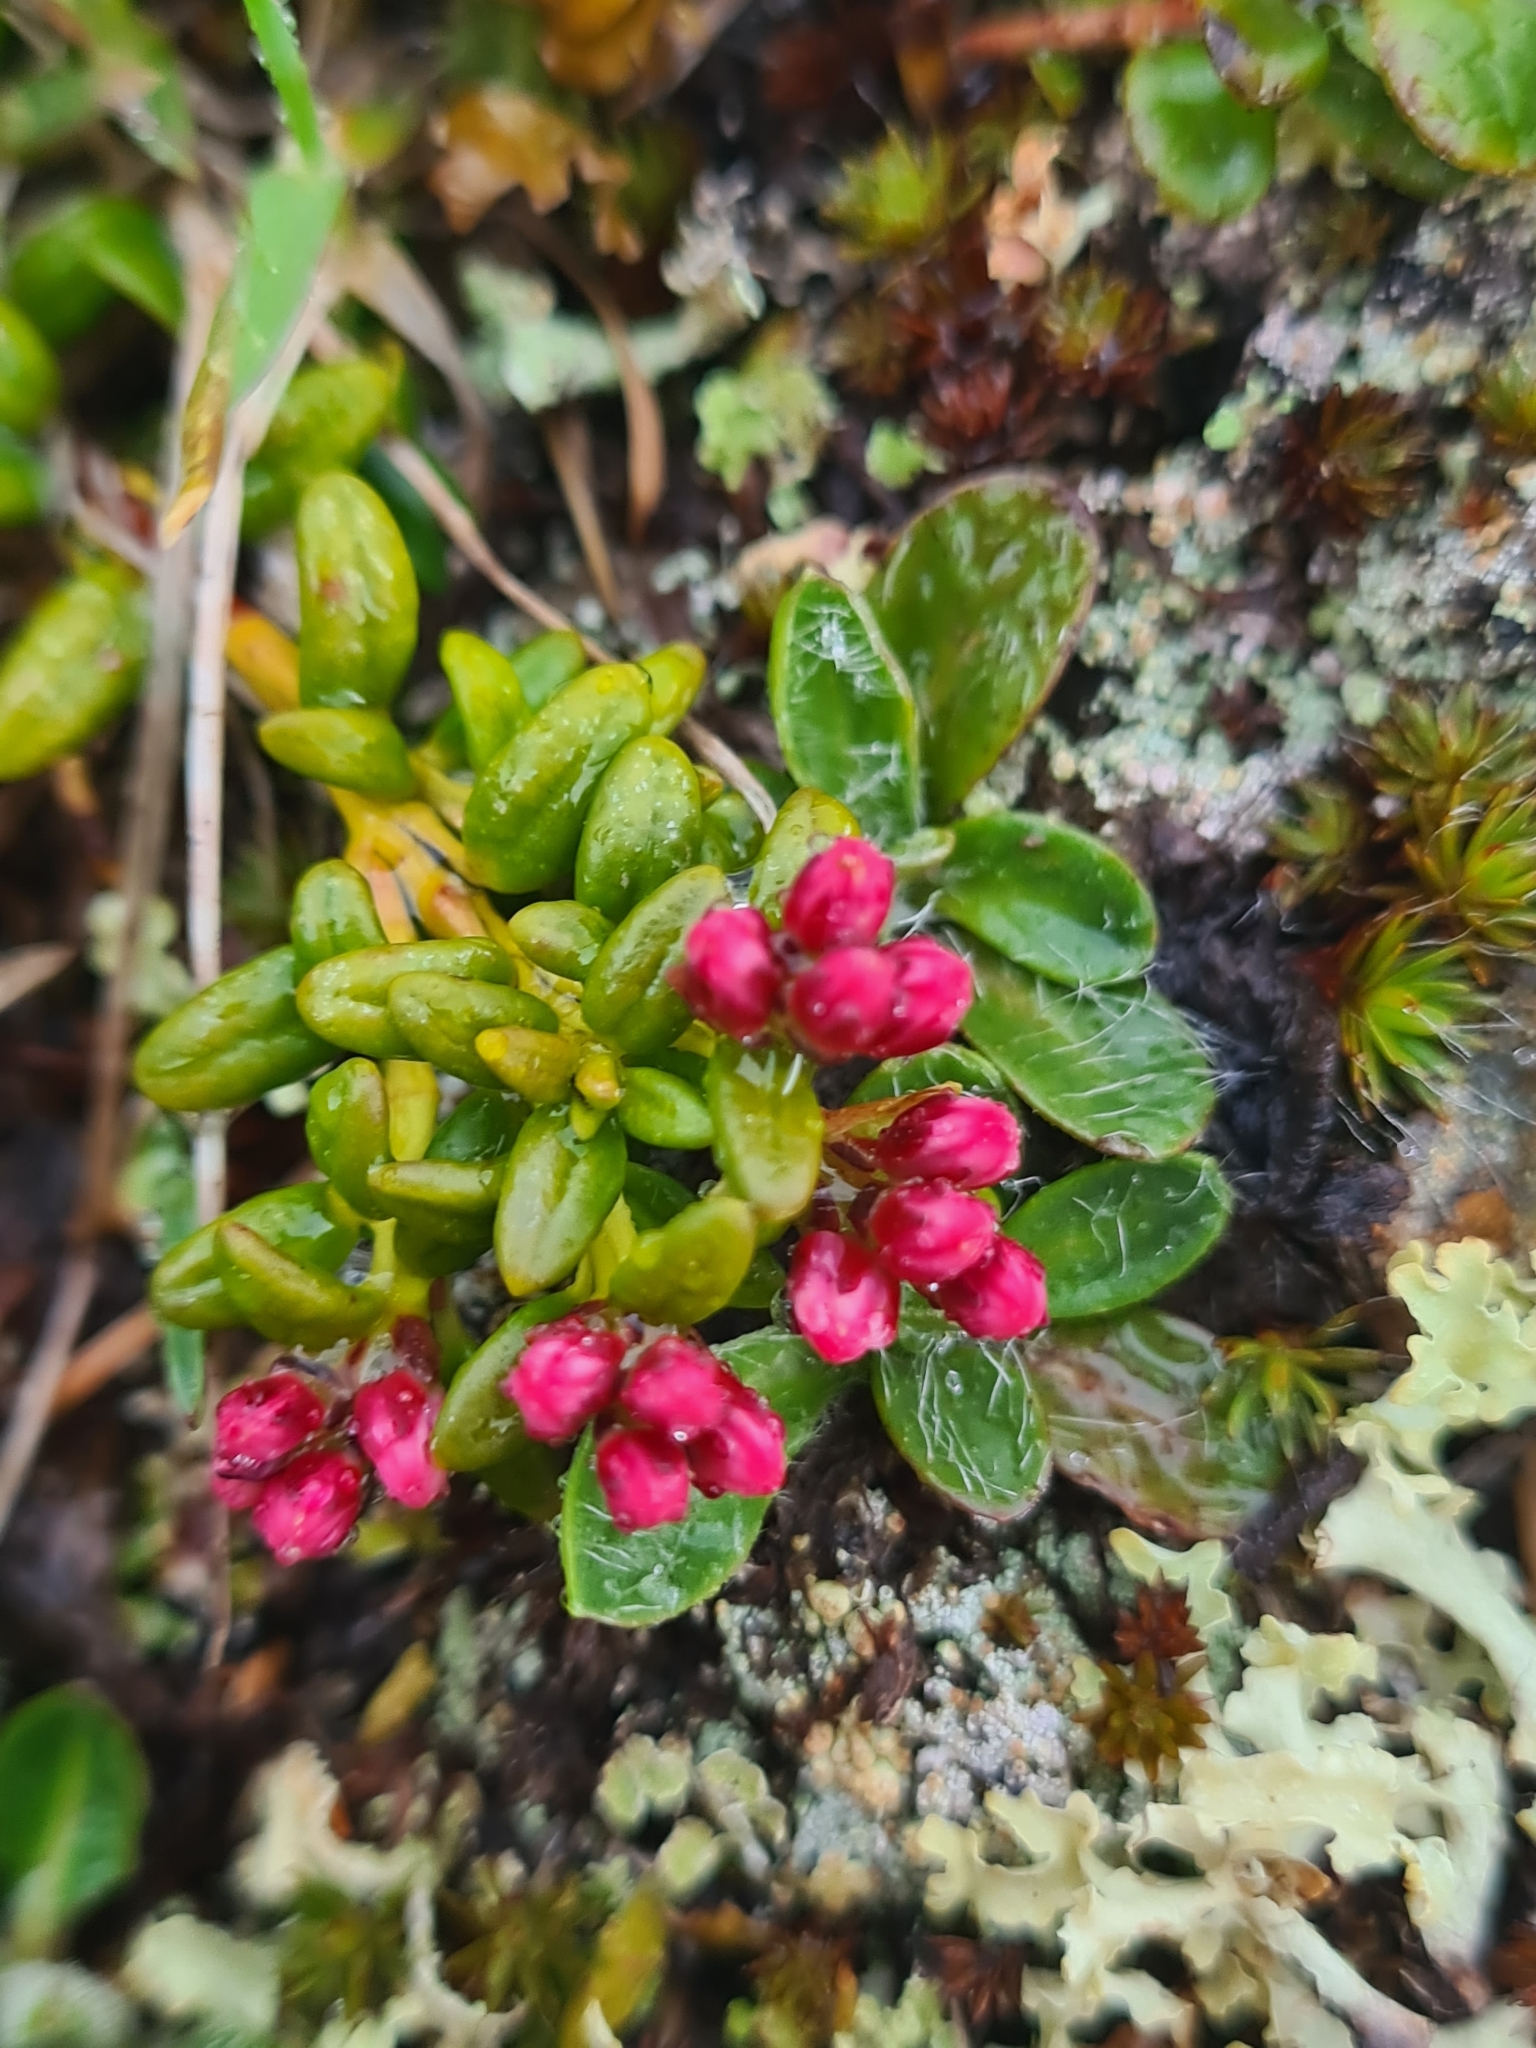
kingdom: Plantae
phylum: Tracheophyta
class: Magnoliopsida
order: Ericales
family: Ericaceae
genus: Kalmia
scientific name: Kalmia procumbens
